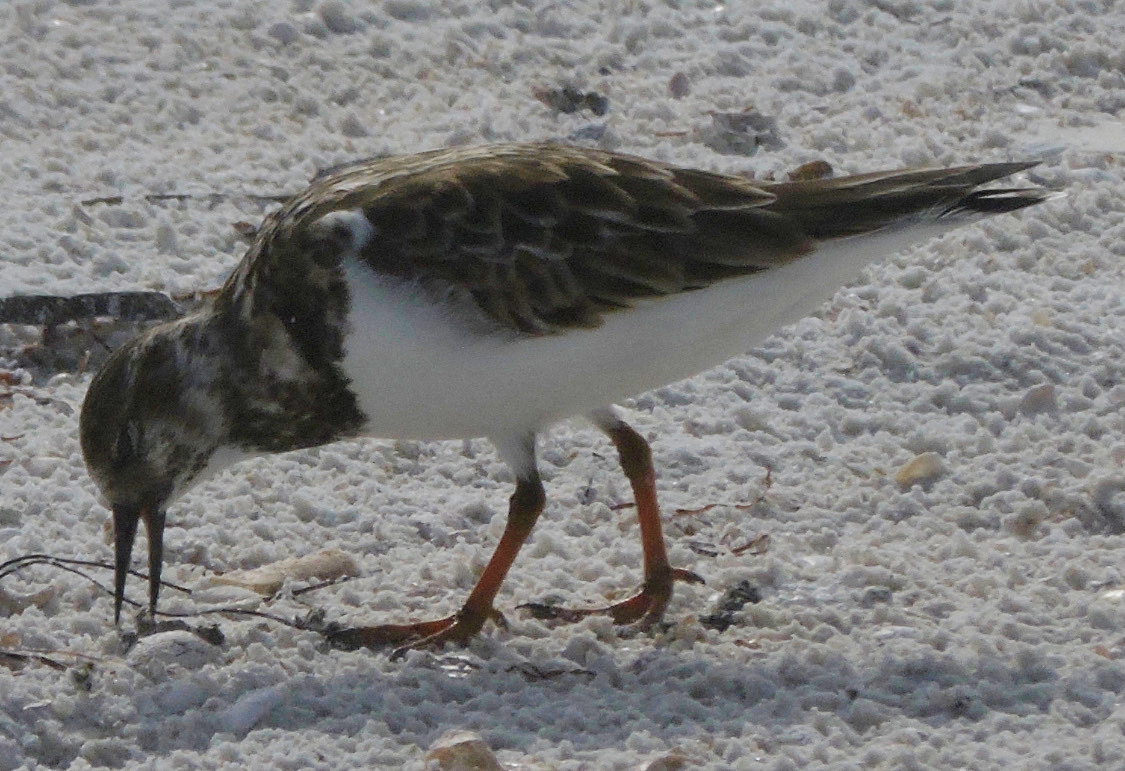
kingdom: Animalia
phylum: Chordata
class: Aves
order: Charadriiformes
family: Scolopacidae
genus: Arenaria
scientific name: Arenaria interpres
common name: Ruddy turnstone
